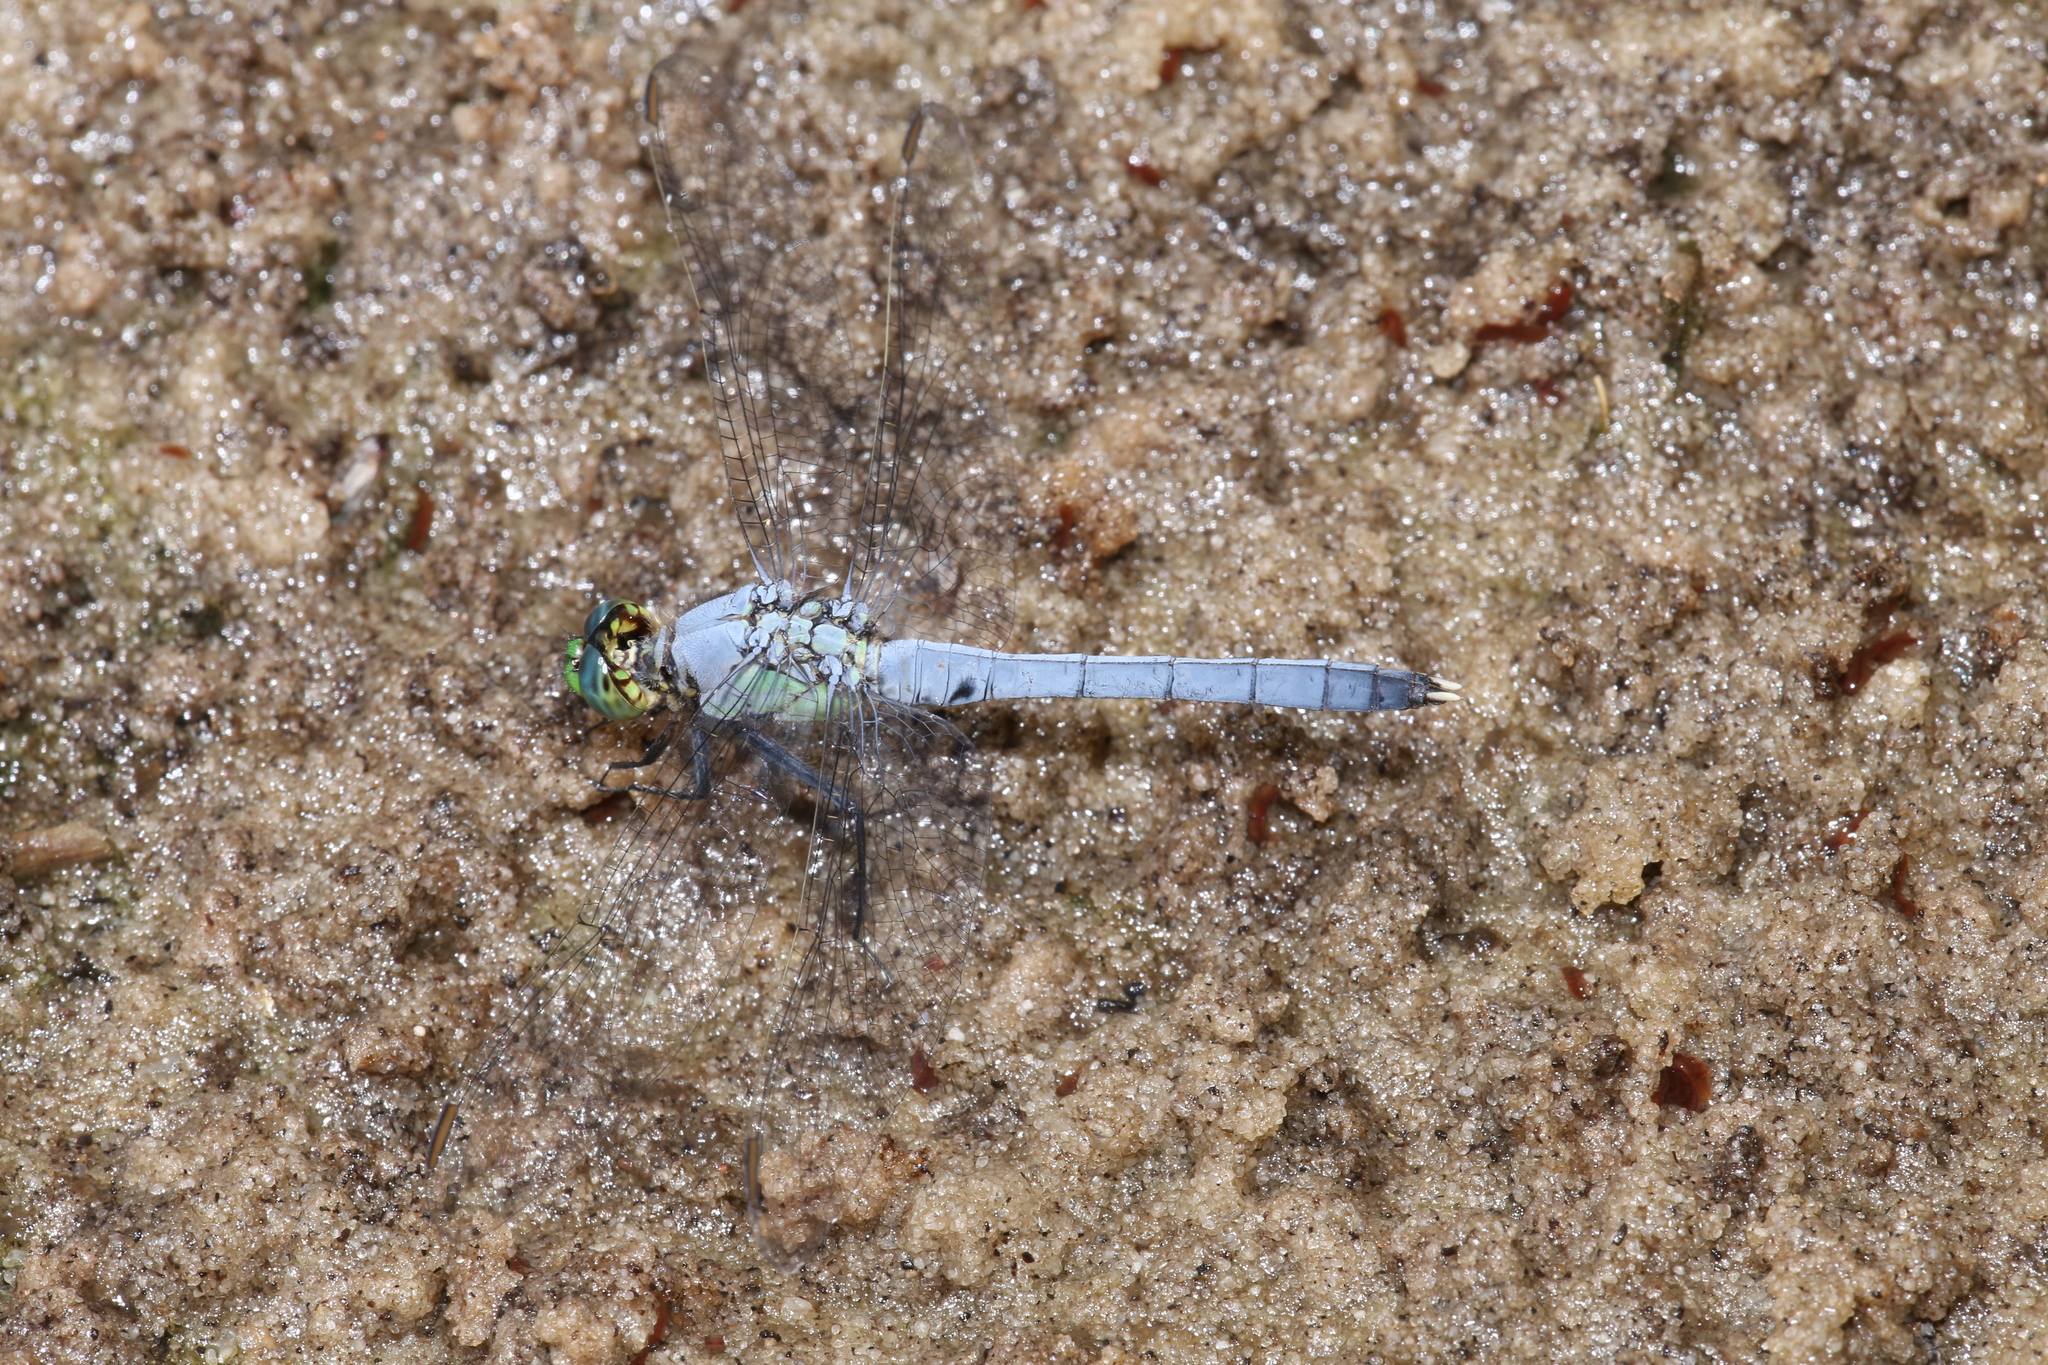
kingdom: Animalia
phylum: Arthropoda
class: Insecta
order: Odonata
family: Libellulidae
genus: Erythemis
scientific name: Erythemis simplicicollis
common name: Eastern pondhawk
